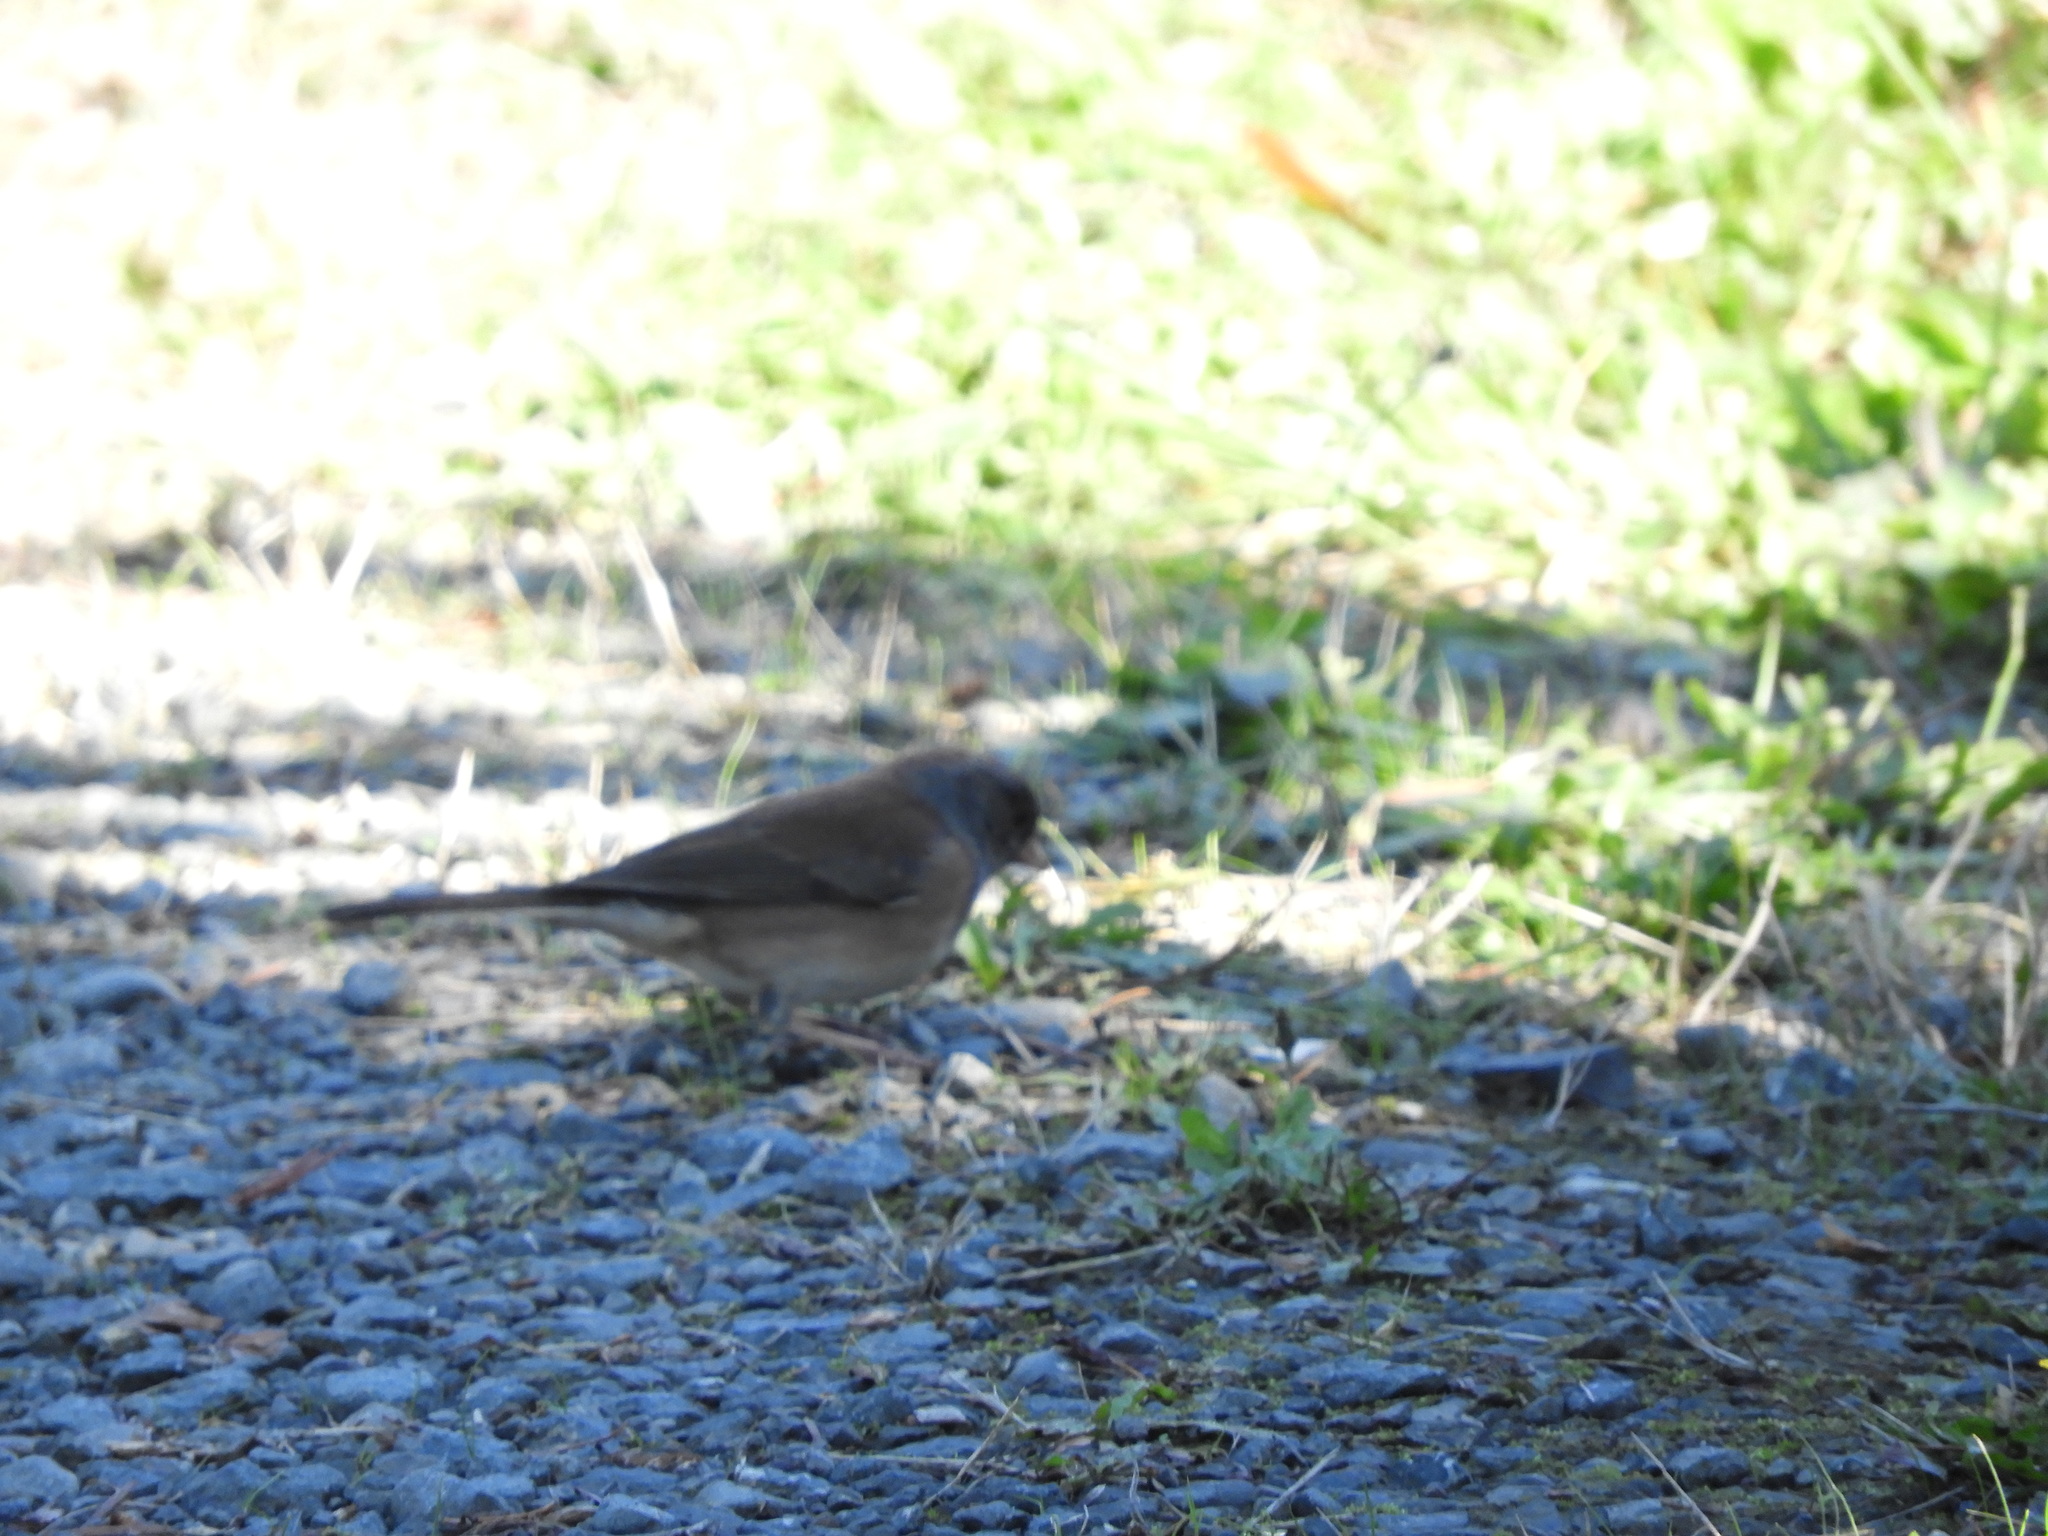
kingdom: Animalia
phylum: Chordata
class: Aves
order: Passeriformes
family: Passerellidae
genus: Junco
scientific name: Junco hyemalis
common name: Dark-eyed junco
